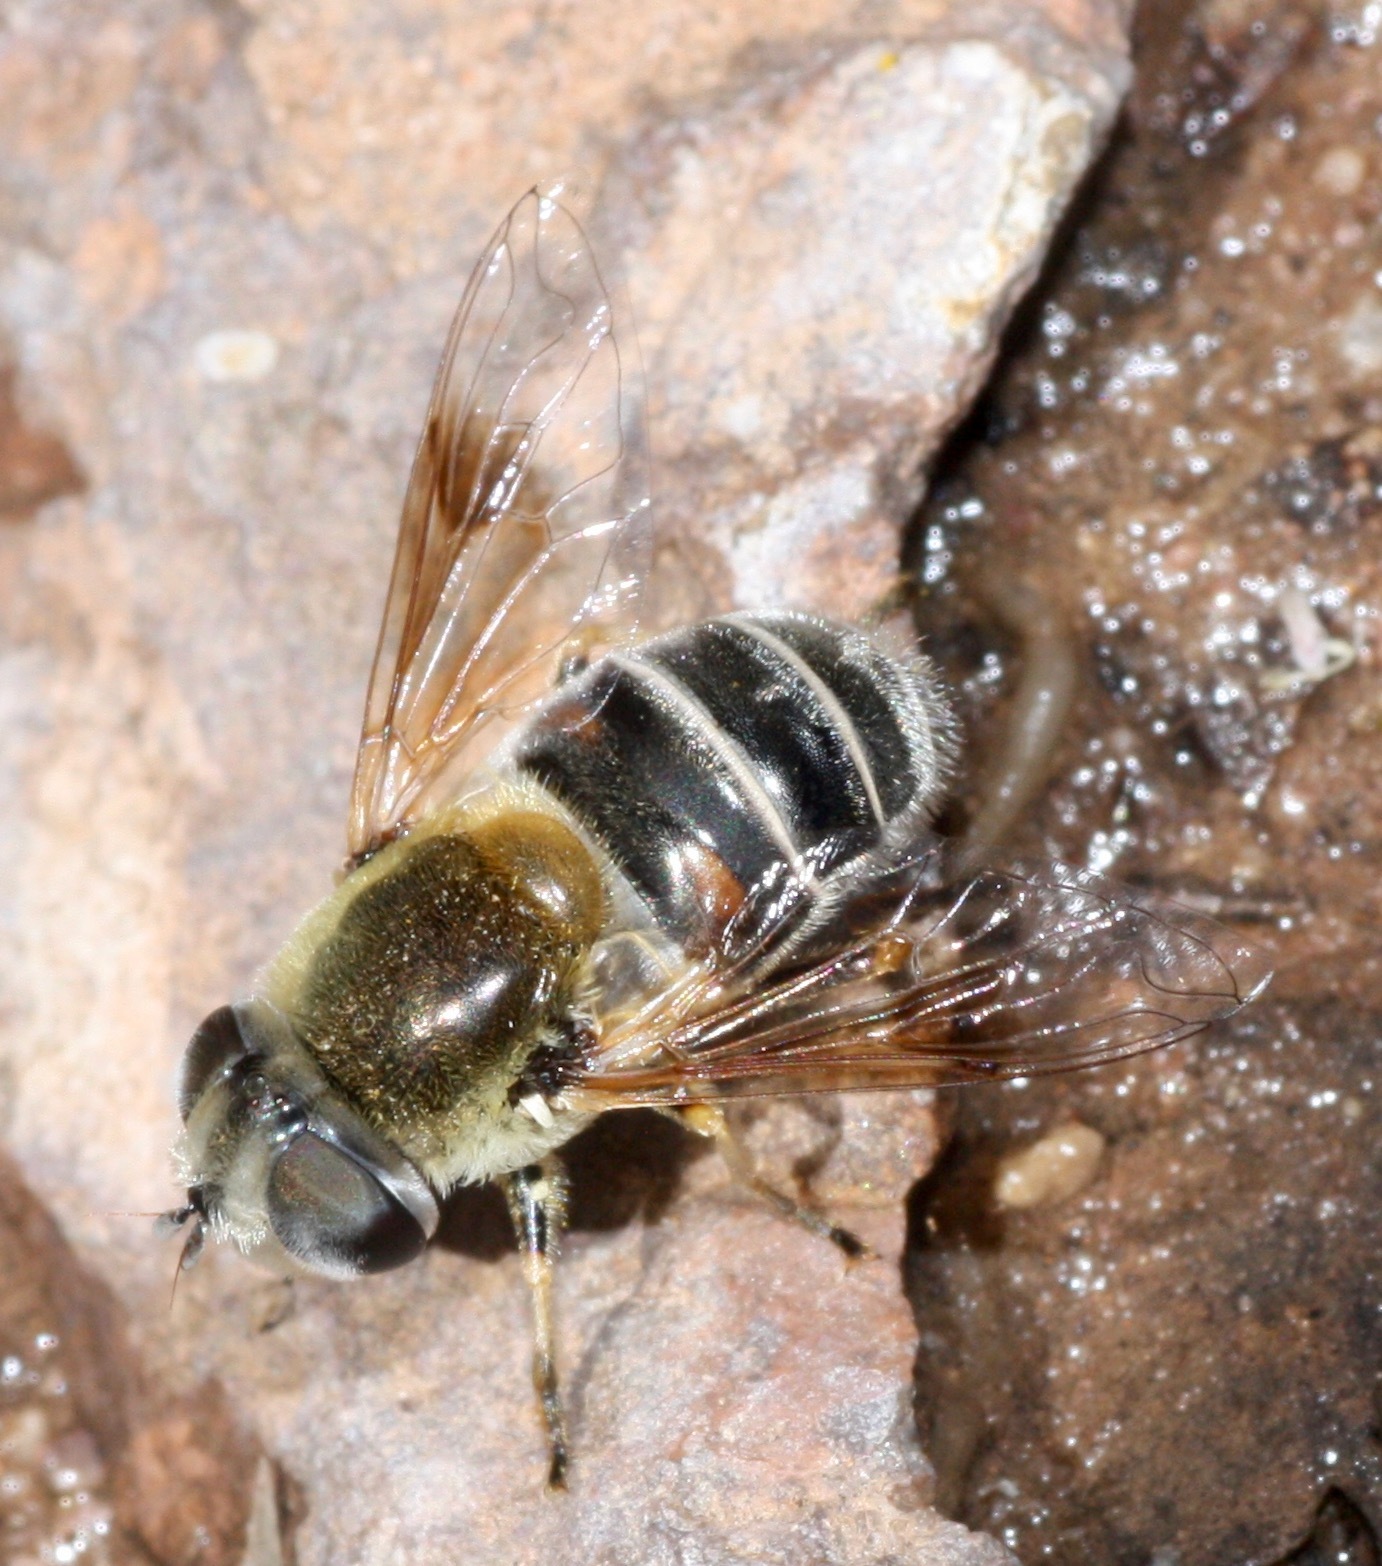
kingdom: Animalia
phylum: Arthropoda
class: Insecta
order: Diptera
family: Syrphidae
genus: Eristalis
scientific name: Eristalis stipator
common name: Yellow-shouldered drone fly
